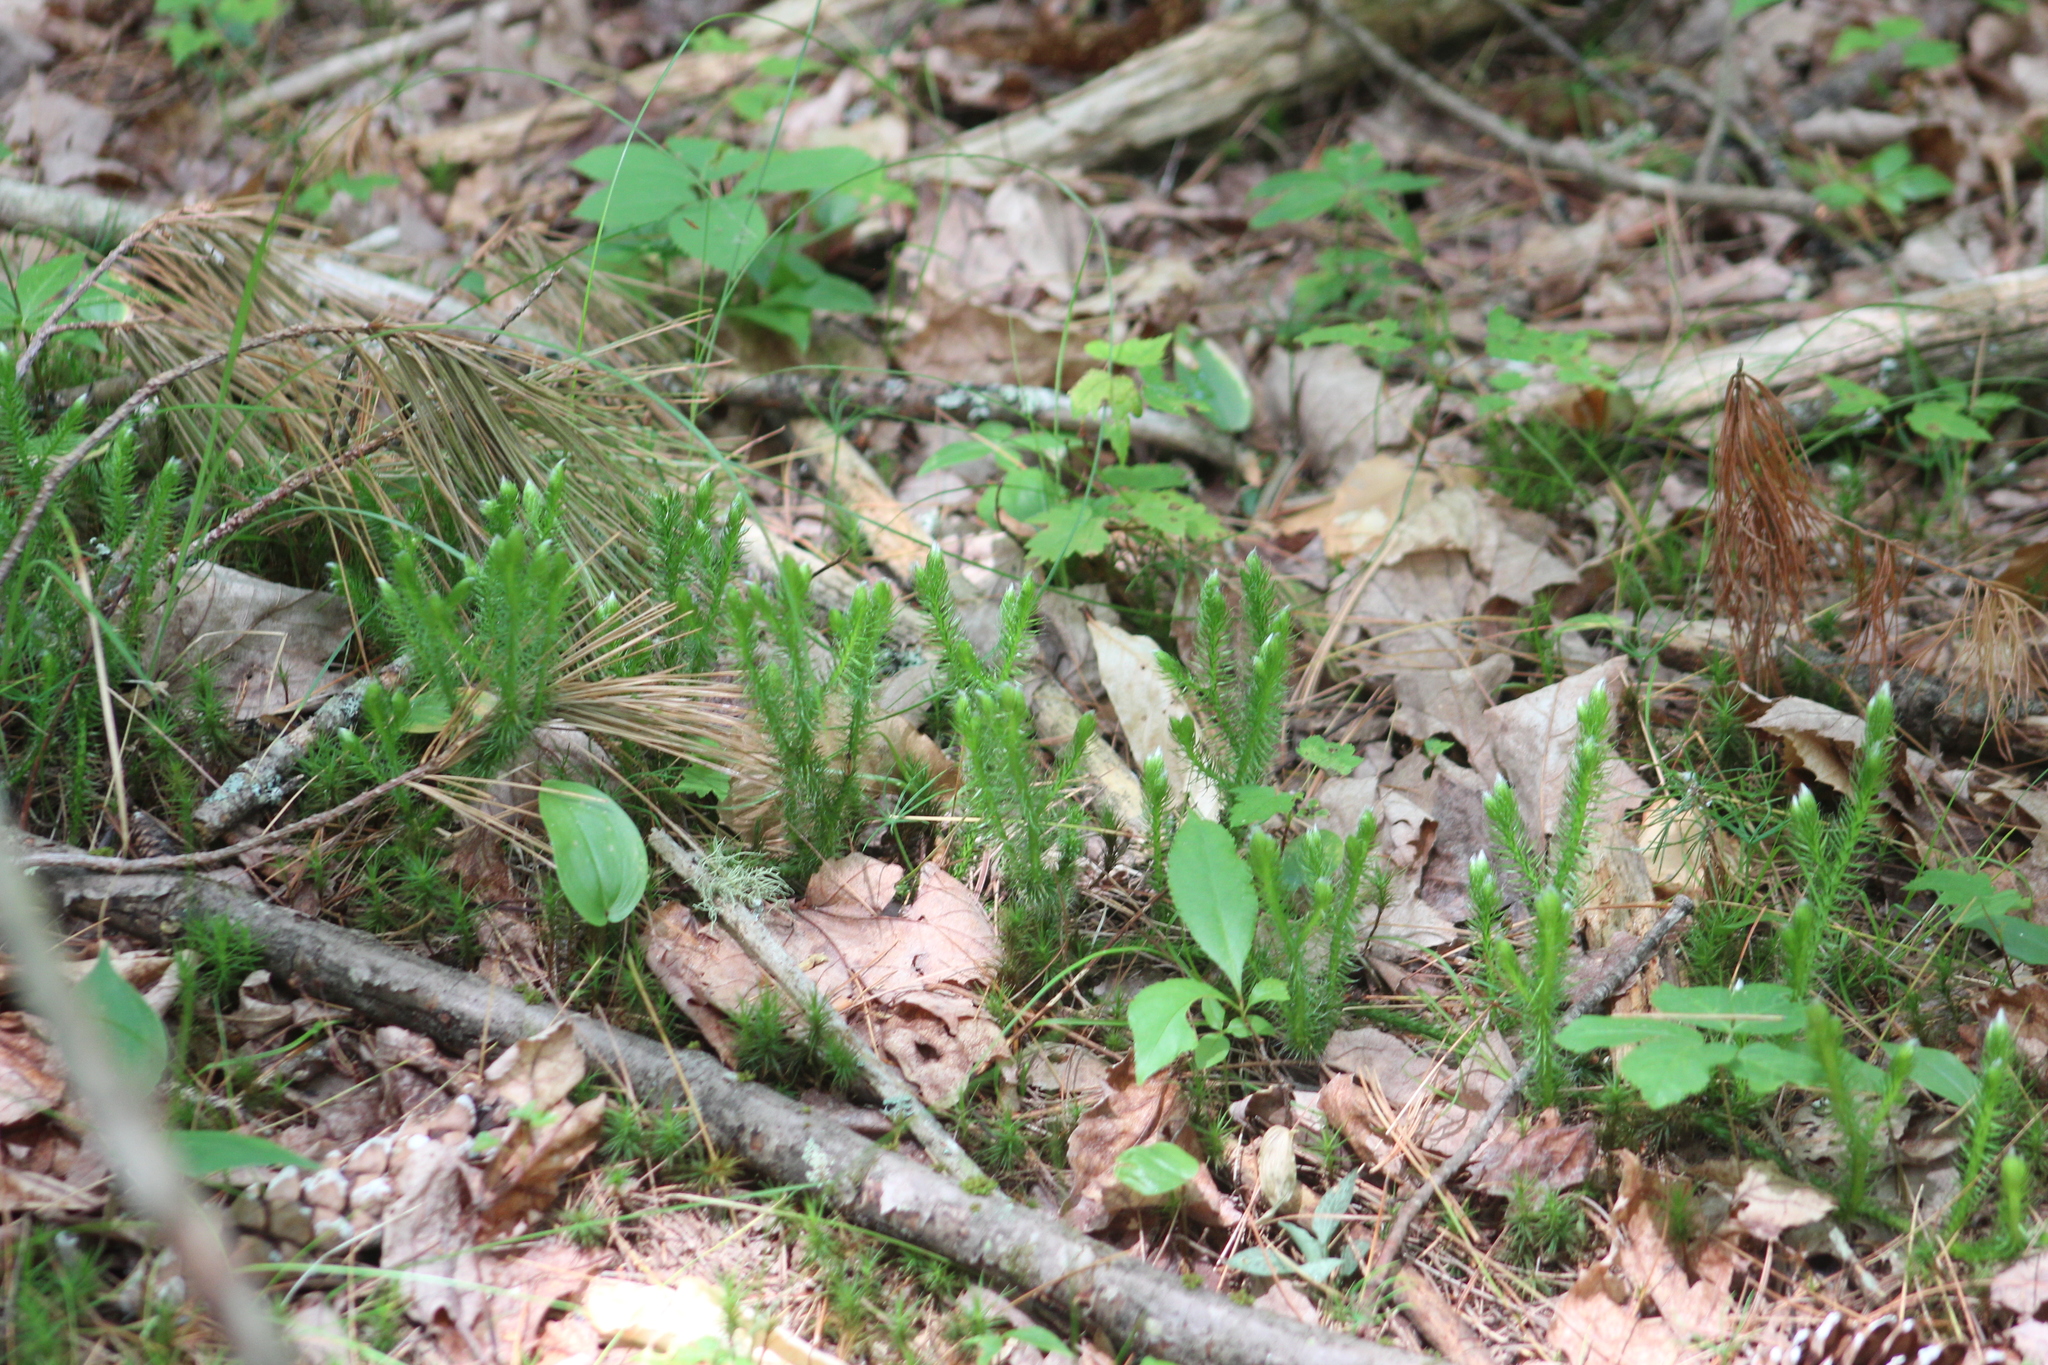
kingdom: Plantae
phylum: Tracheophyta
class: Lycopodiopsida
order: Lycopodiales
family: Lycopodiaceae
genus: Lycopodium
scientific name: Lycopodium clavatum
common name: Stag's-horn clubmoss
